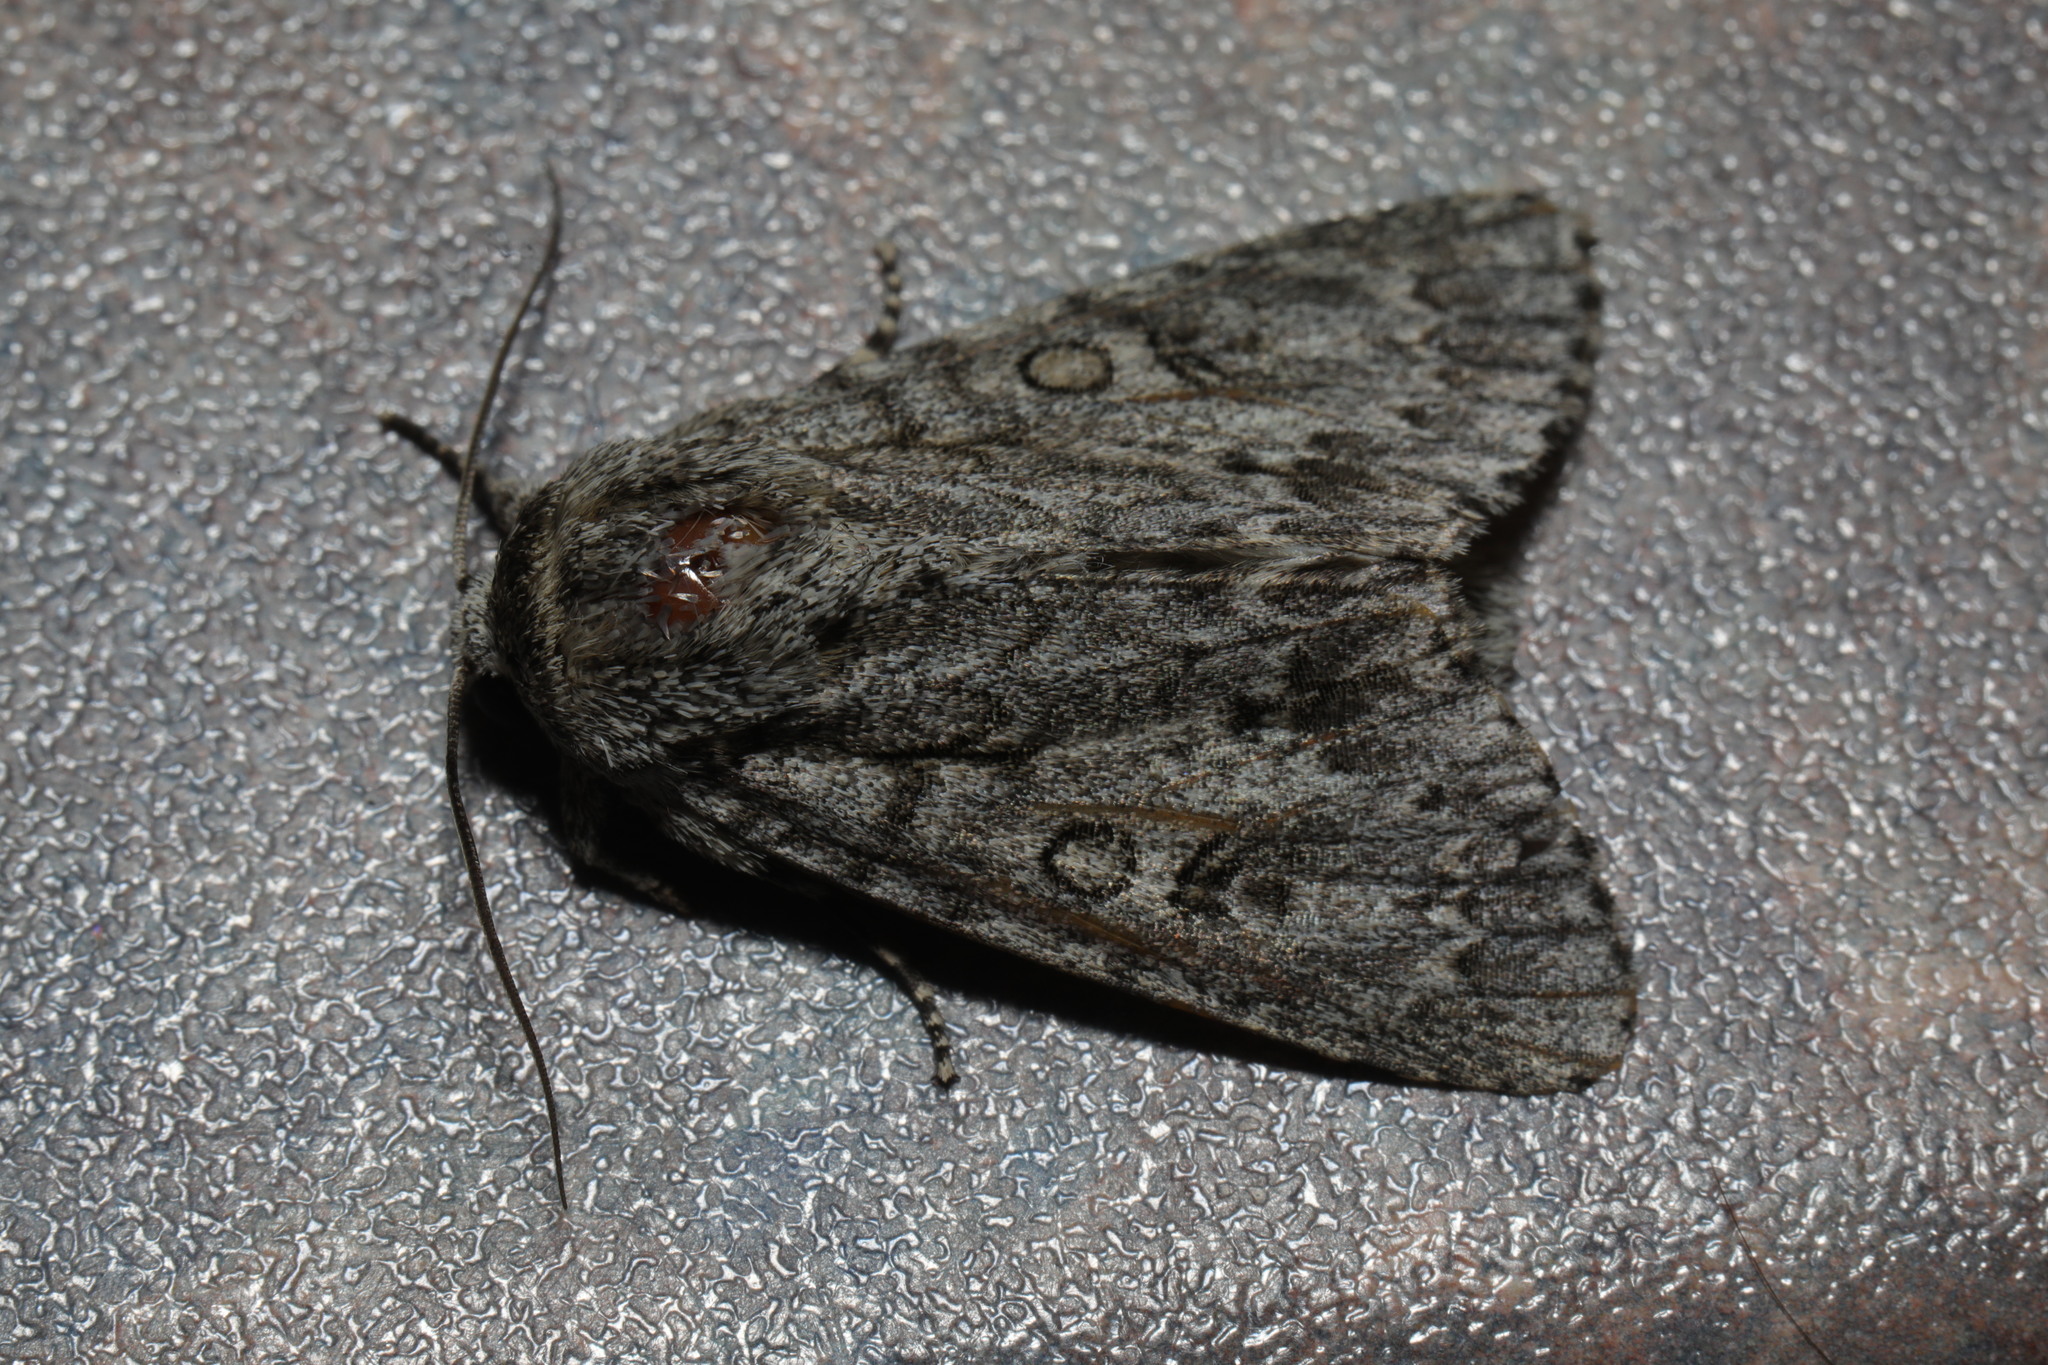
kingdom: Animalia
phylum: Arthropoda
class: Insecta
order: Lepidoptera
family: Noctuidae
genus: Acronicta
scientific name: Acronicta aceris
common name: Sycamore
